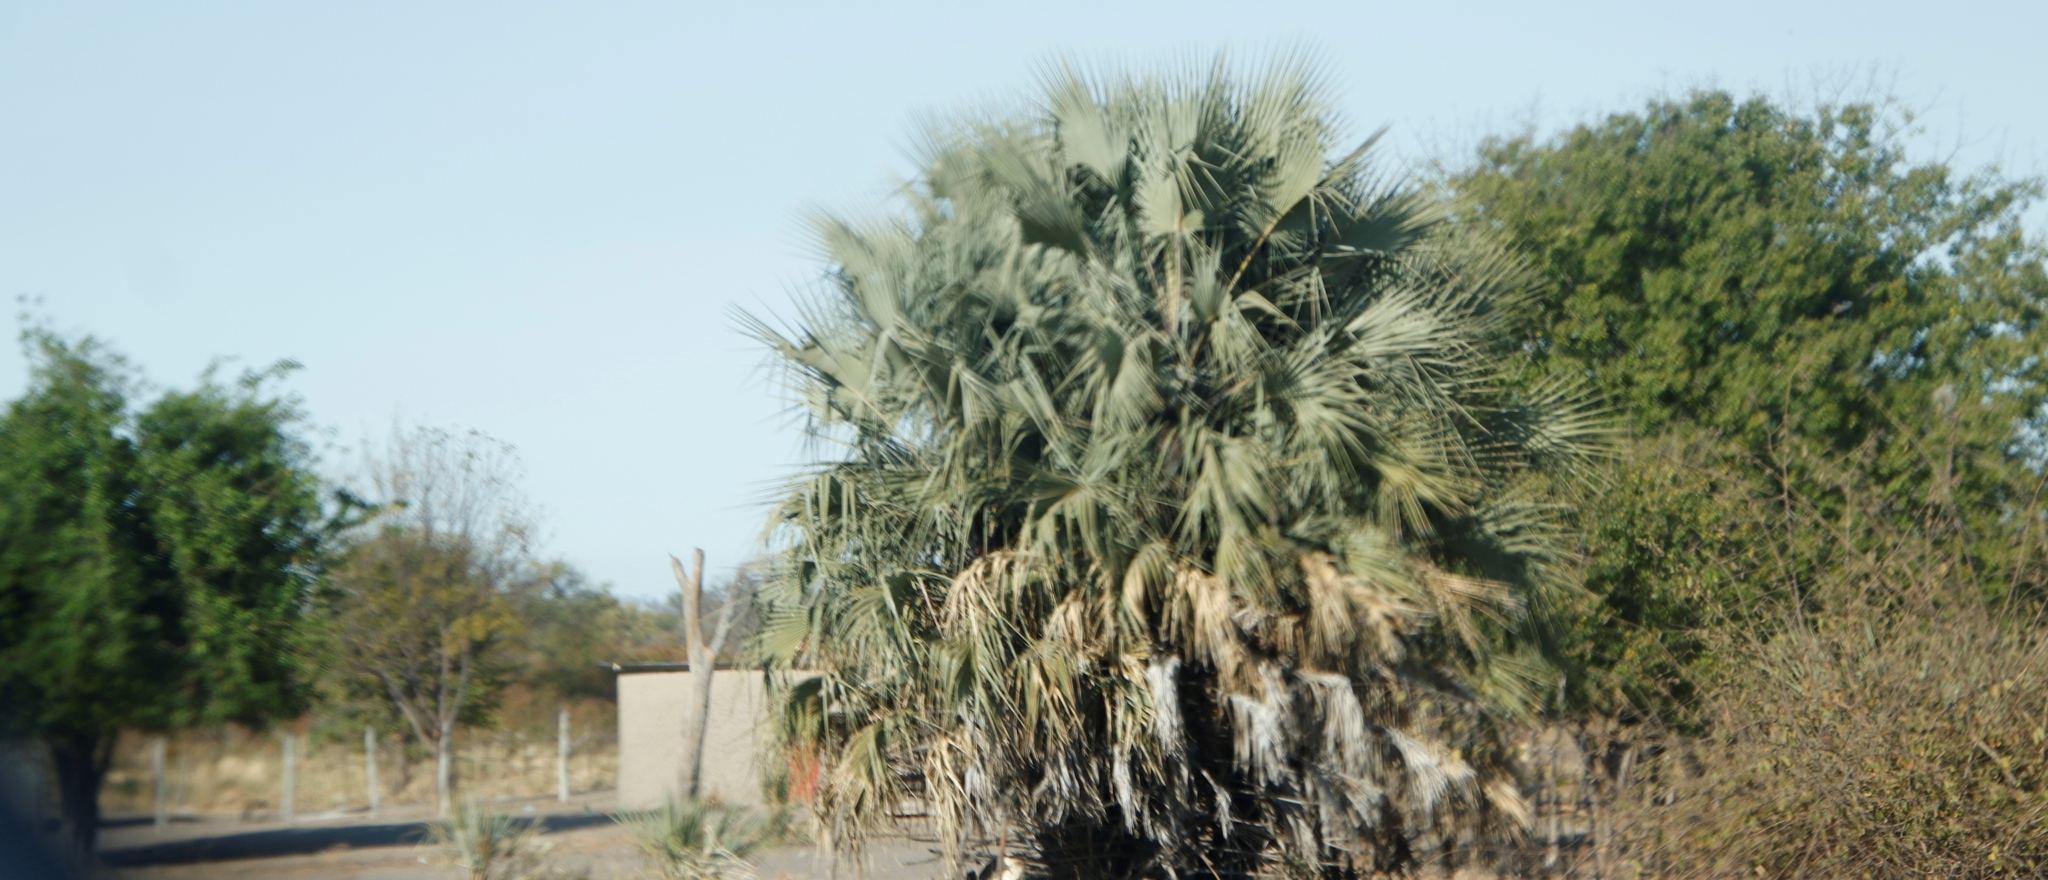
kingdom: Plantae
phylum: Tracheophyta
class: Liliopsida
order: Arecales
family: Arecaceae
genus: Hyphaene
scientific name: Hyphaene petersiana
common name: African ivory nut palm
